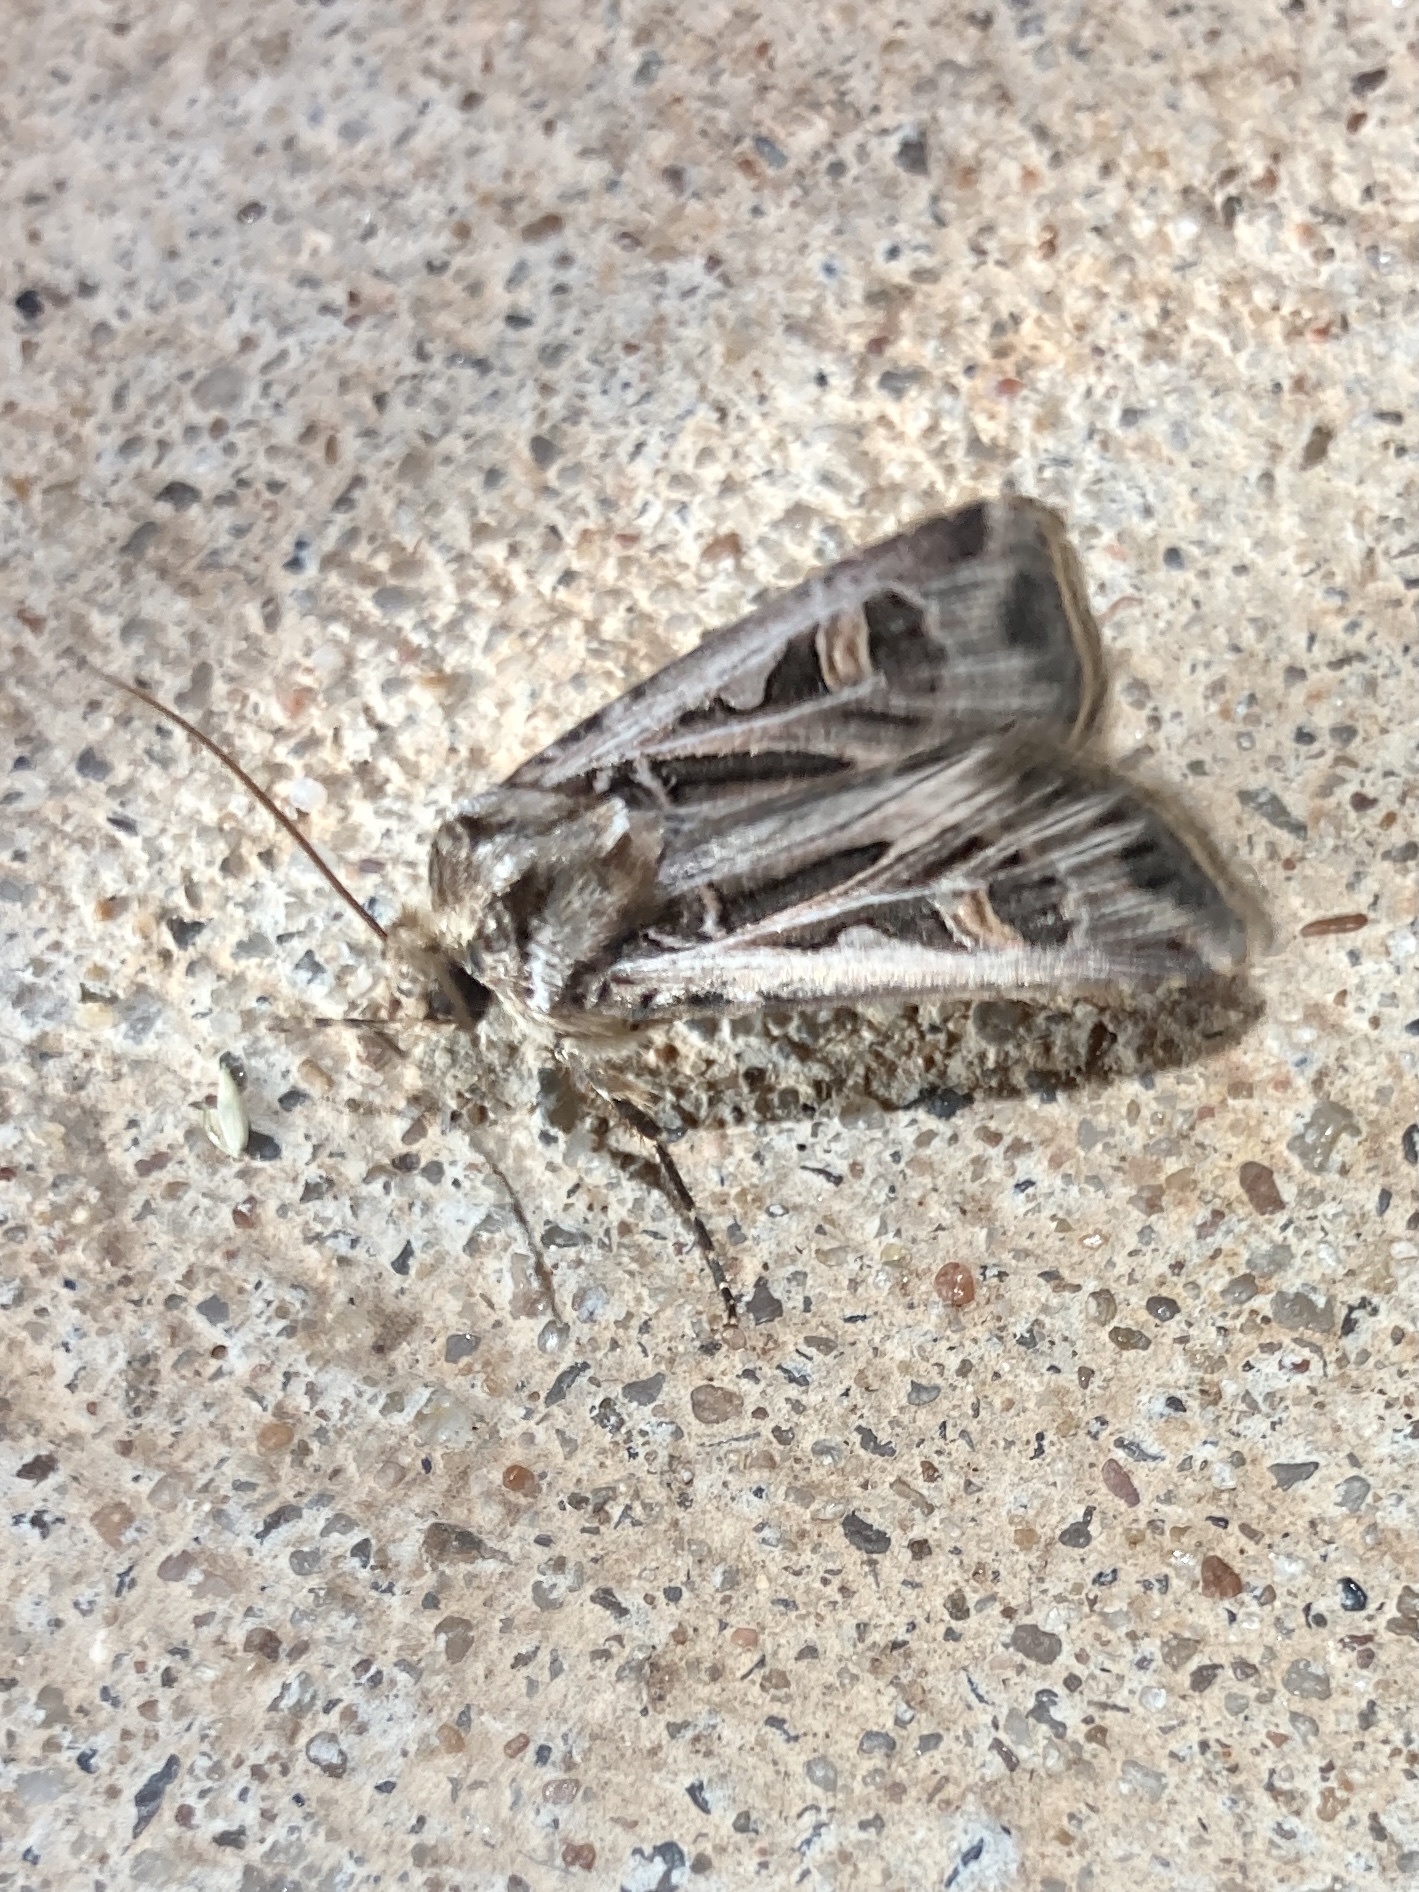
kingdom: Animalia
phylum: Arthropoda
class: Insecta
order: Lepidoptera
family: Noctuidae
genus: Feltia
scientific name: Feltia jaculifera
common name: Dingy cutworm moth
